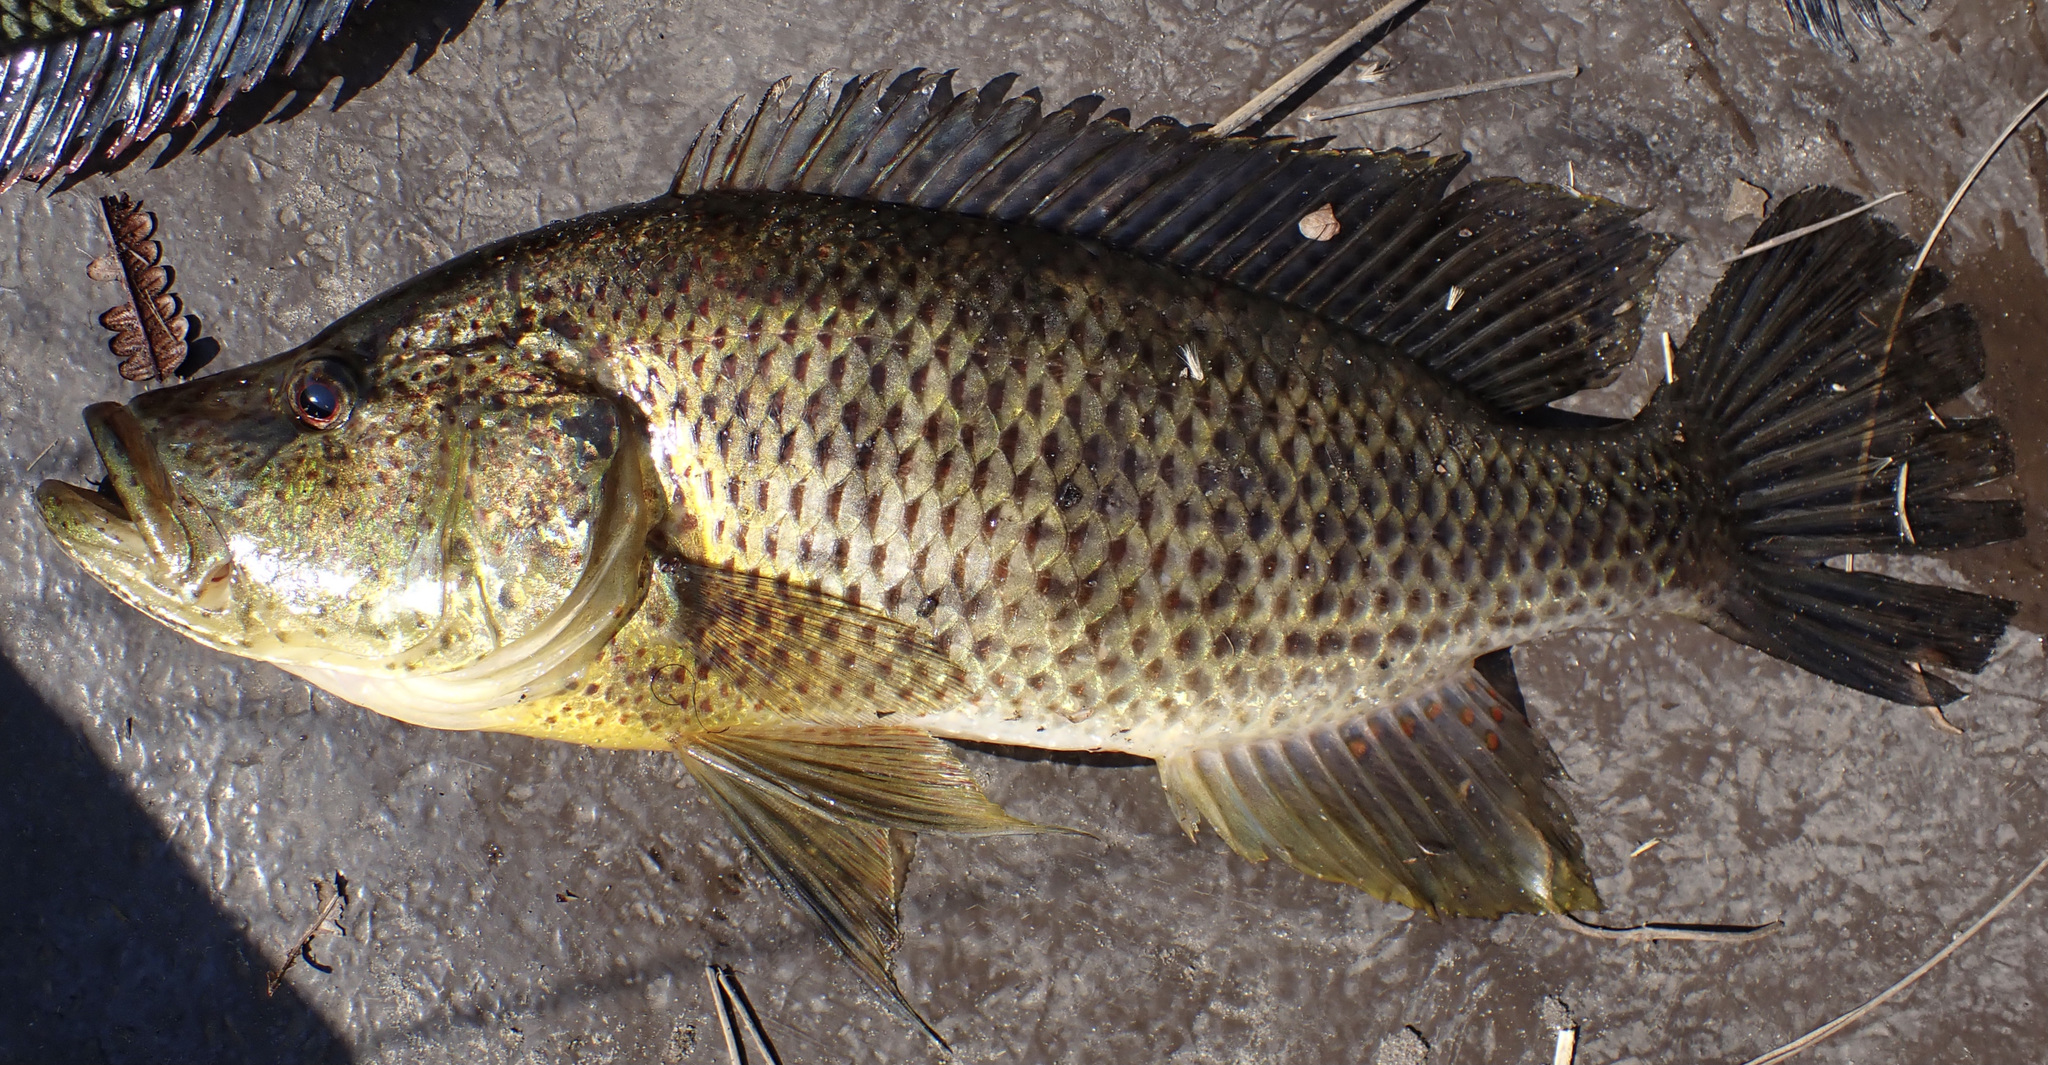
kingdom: Animalia
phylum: Chordata
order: Perciformes
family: Cichlidae
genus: Serranochromis
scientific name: Serranochromis angusticeps
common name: Thinface largemouth
